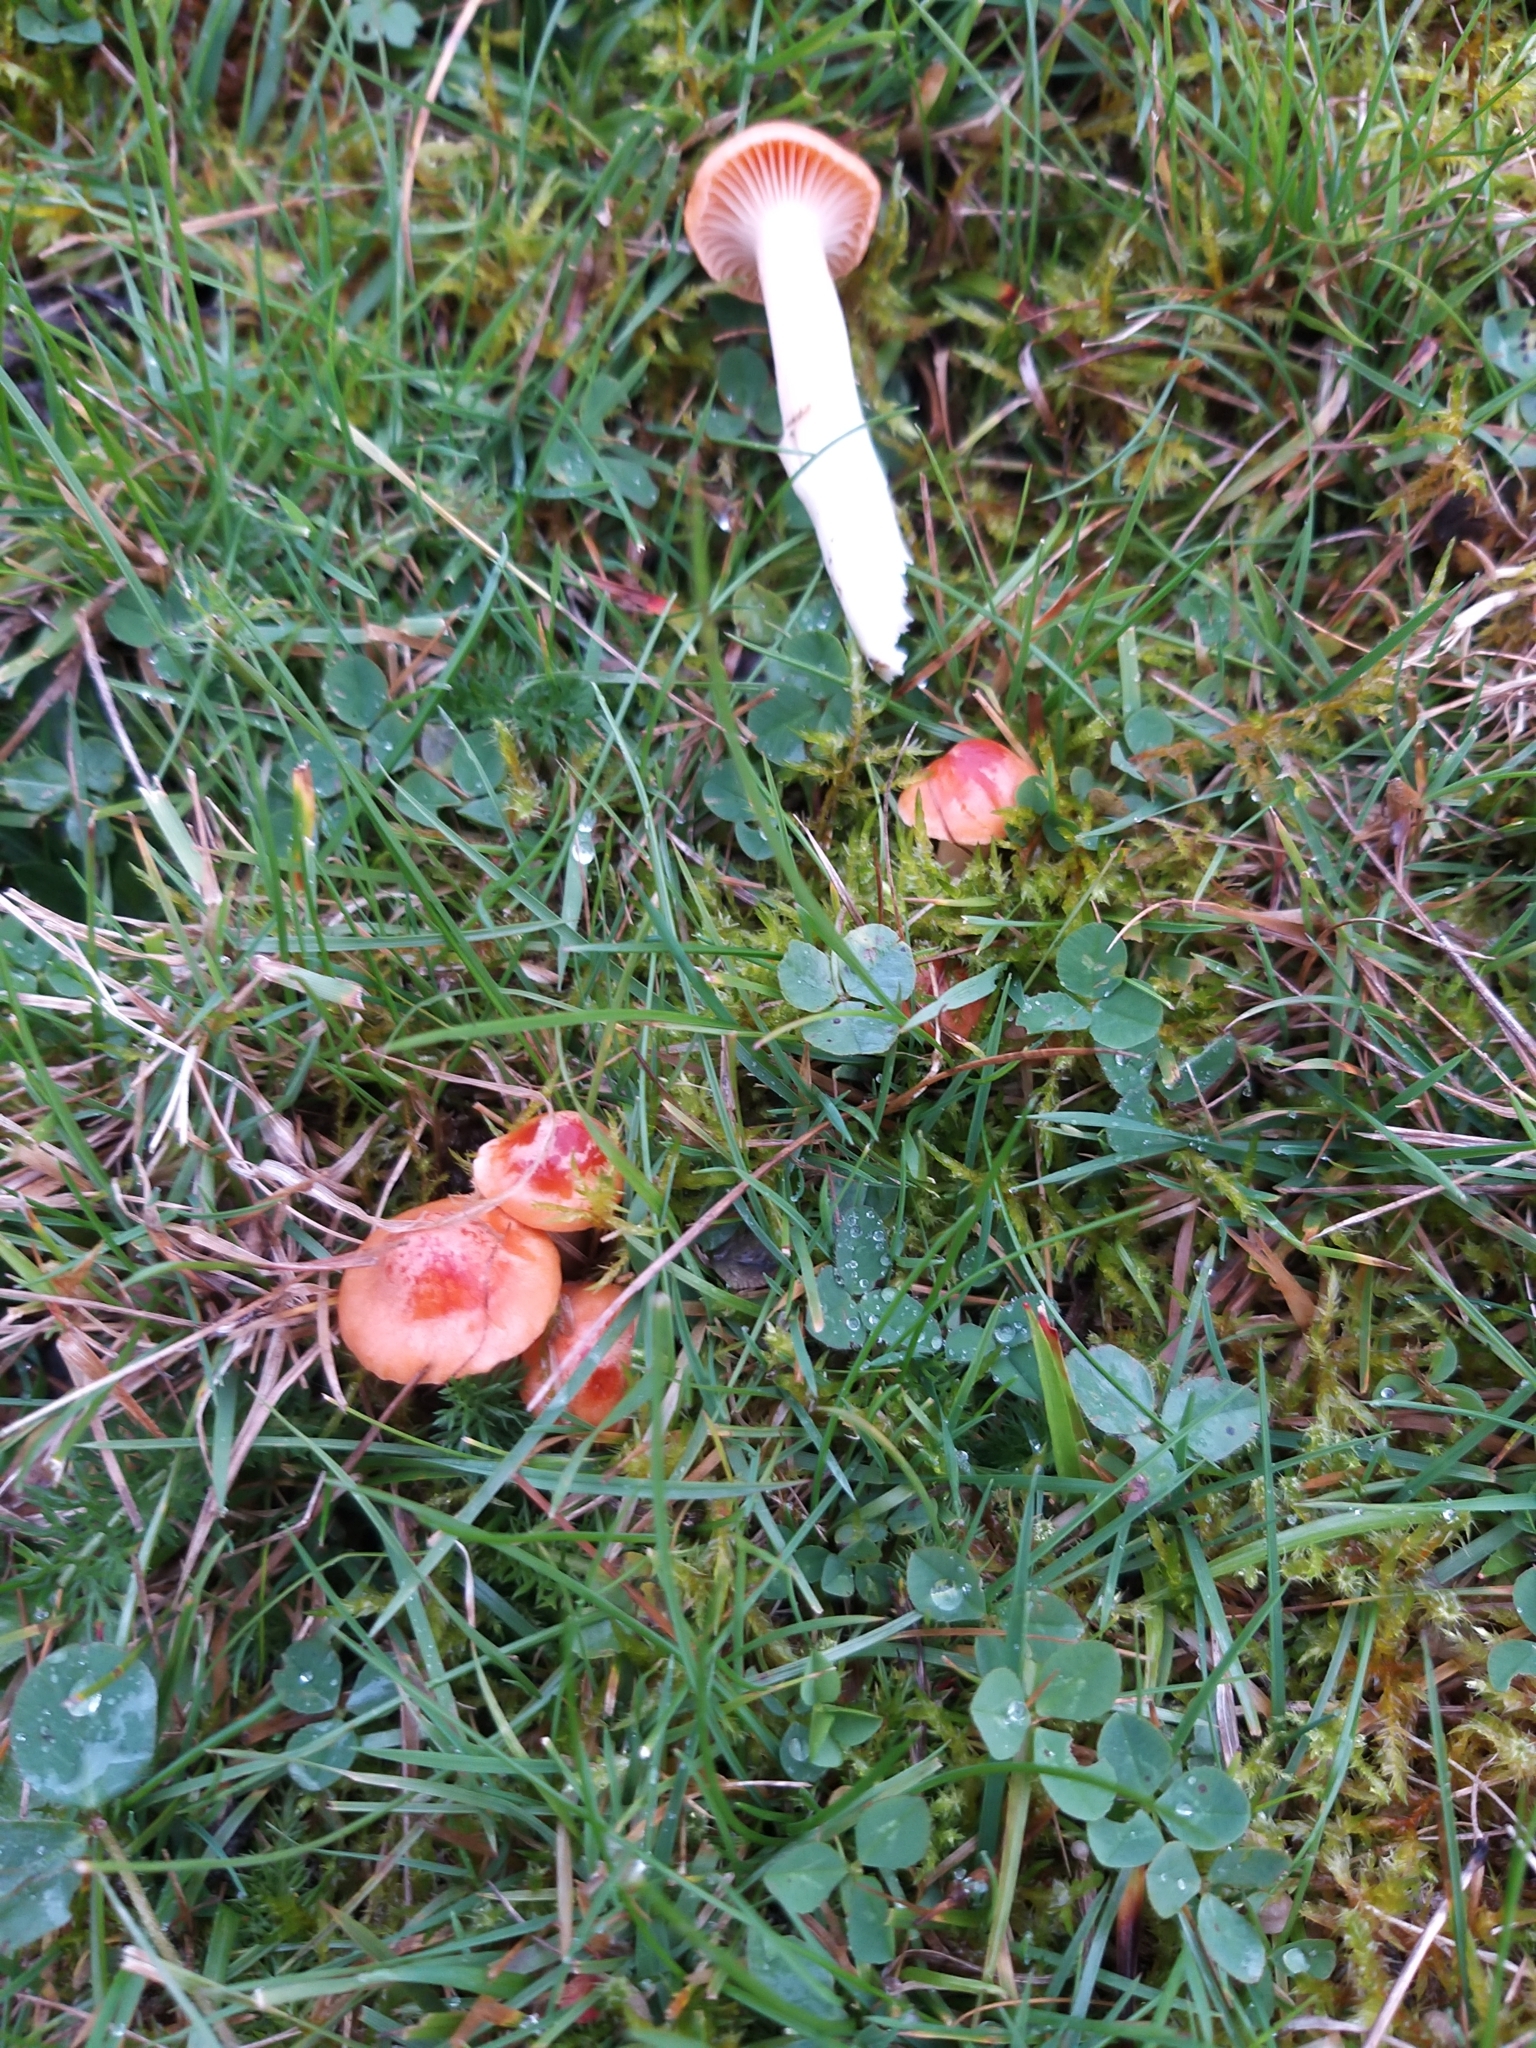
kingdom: Fungi
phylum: Basidiomycota
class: Agaricomycetes
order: Agaricales
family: Hygrophoraceae
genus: Cuphophyllus
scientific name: Cuphophyllus pratensis
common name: Meadow waxcap
